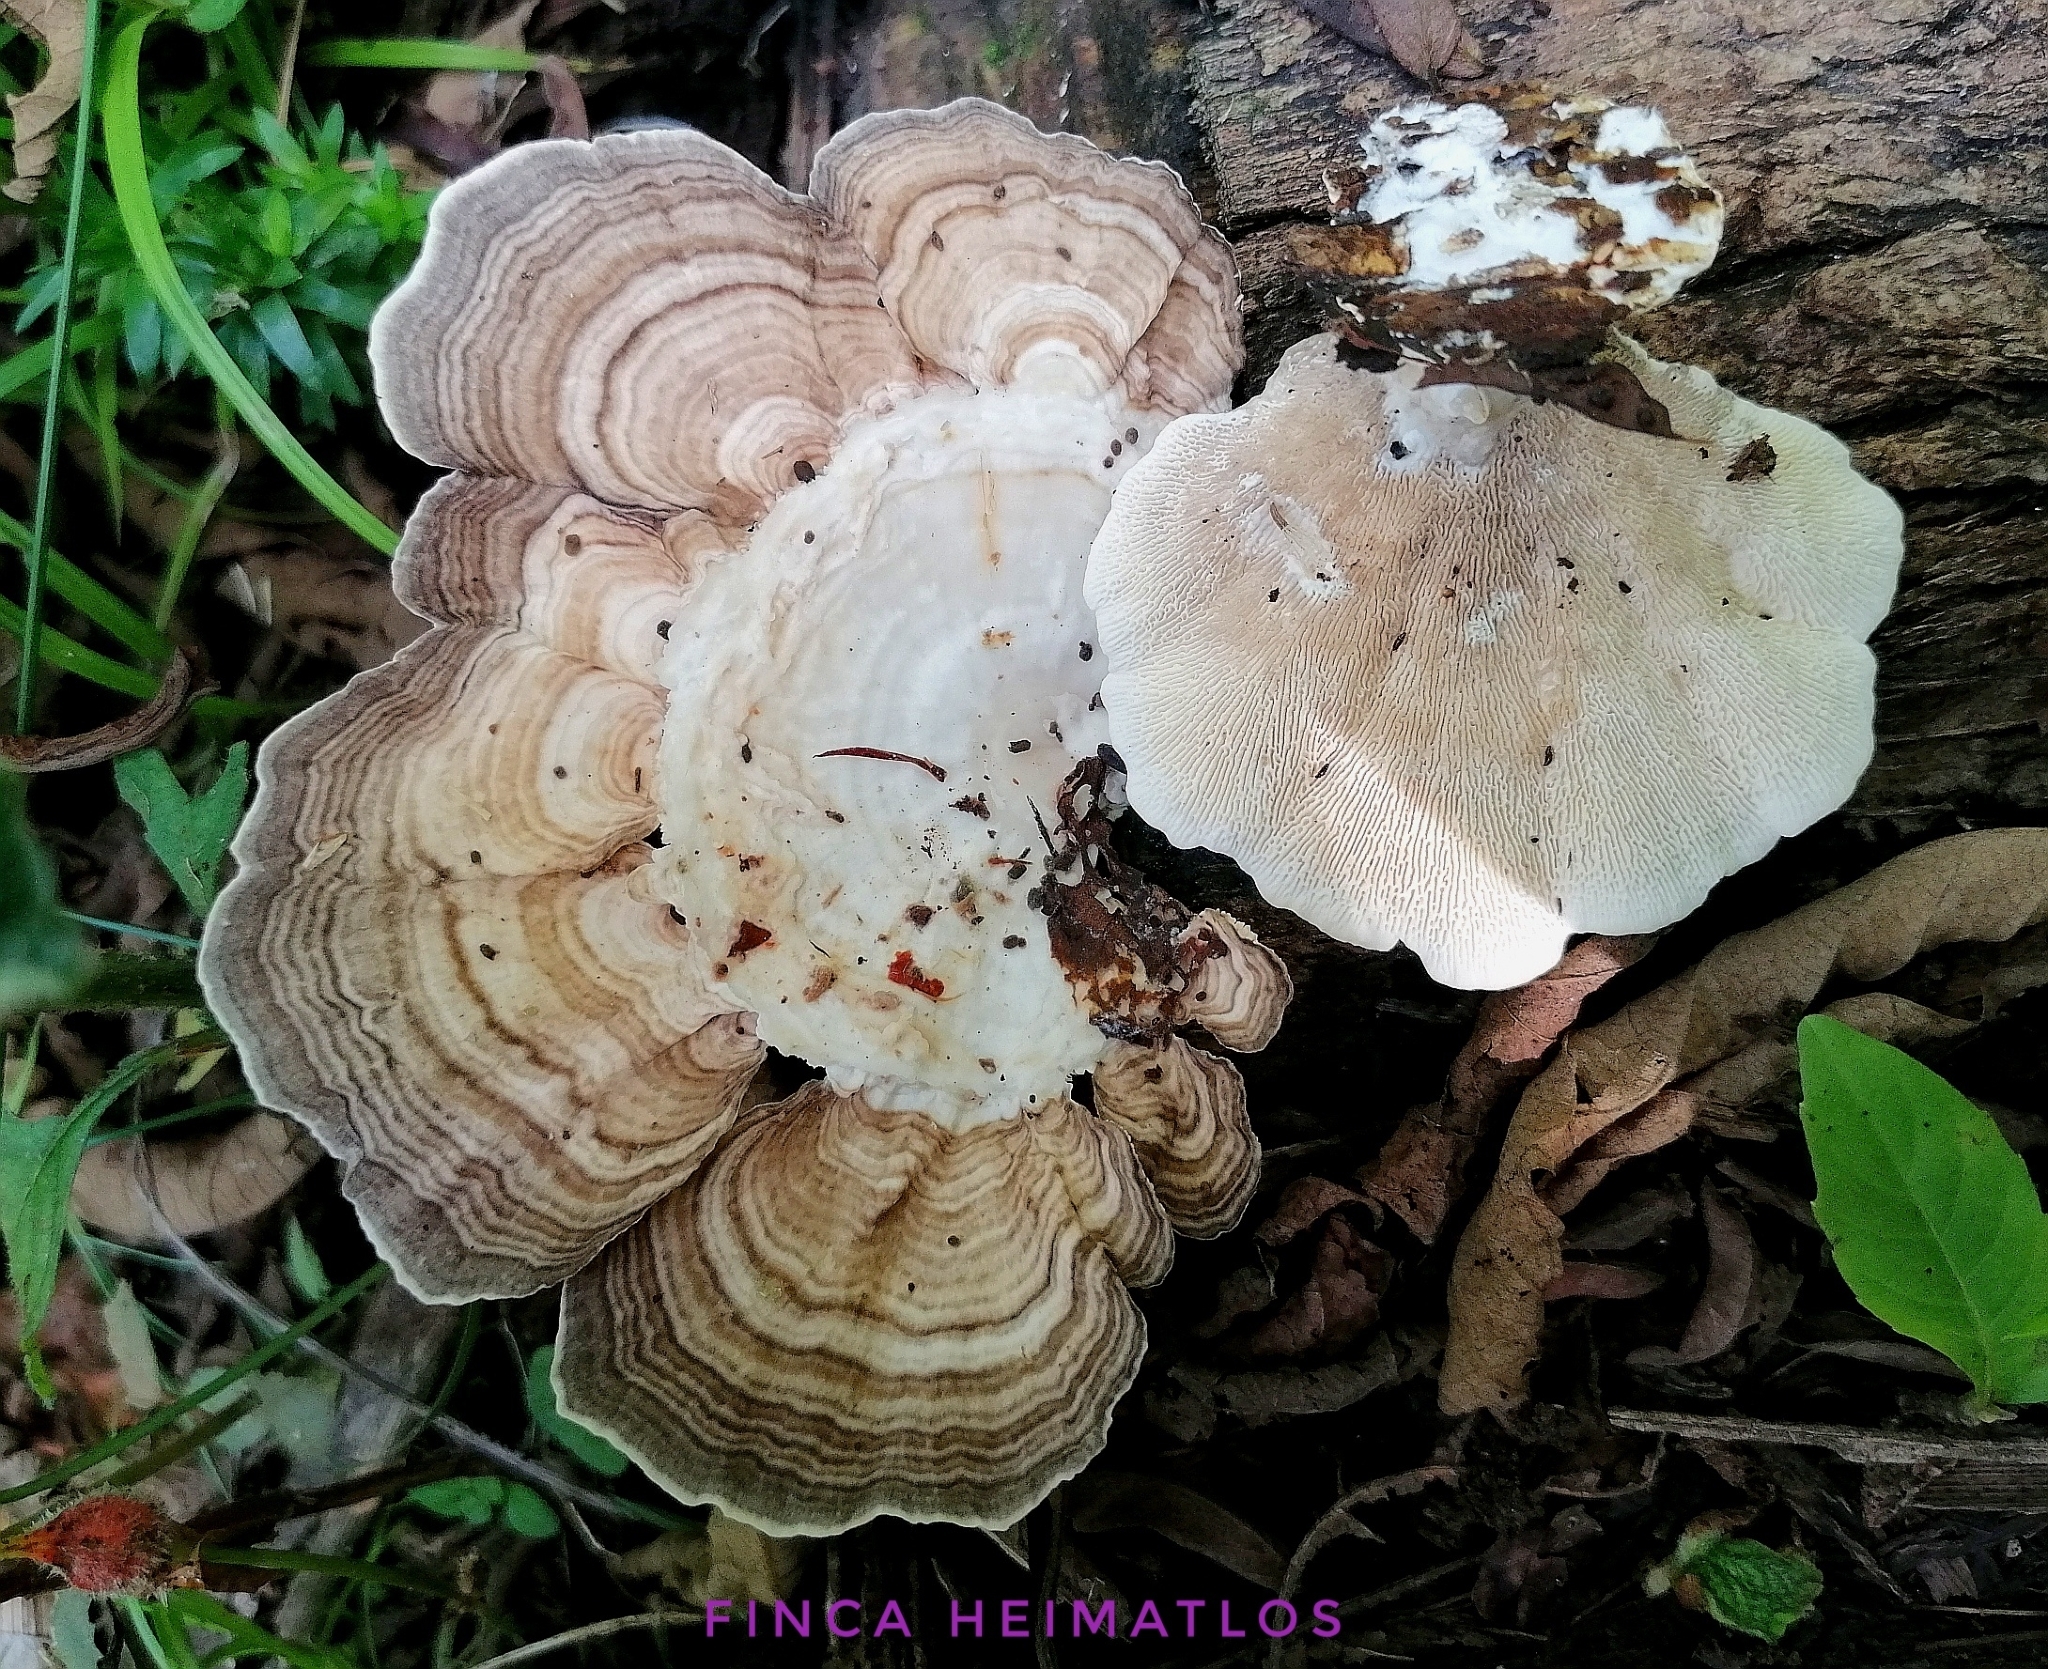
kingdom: Fungi
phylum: Basidiomycota
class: Agaricomycetes
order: Polyporales
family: Polyporaceae
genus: Cubamyces
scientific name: Cubamyces menziesii
